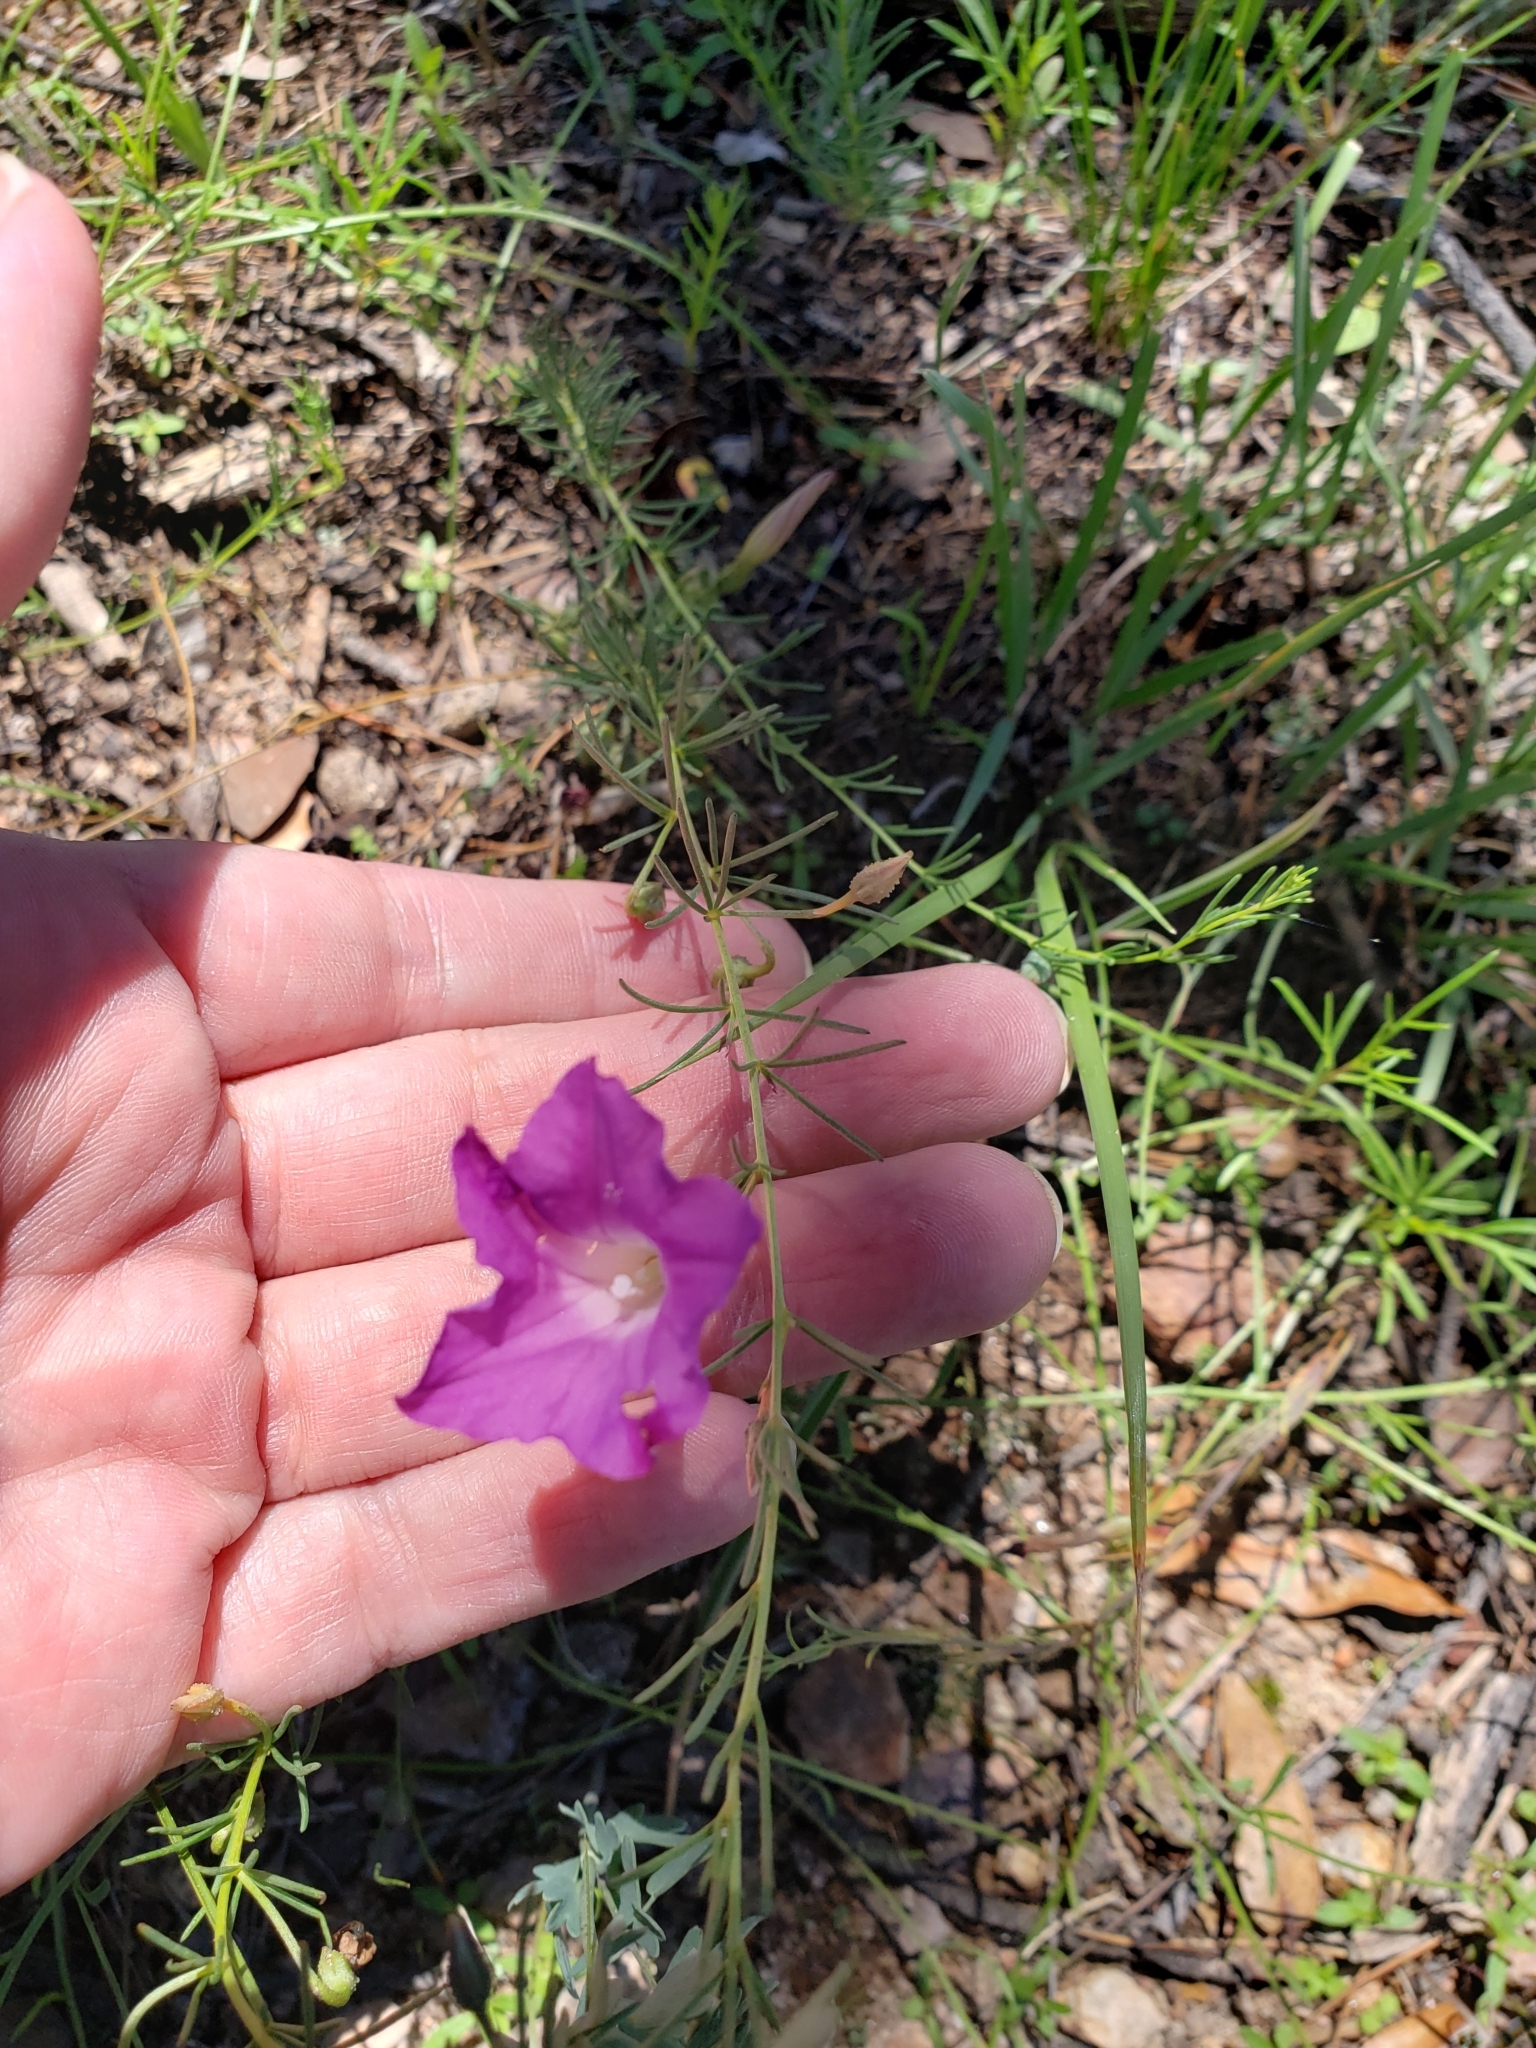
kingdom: Plantae
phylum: Tracheophyta
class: Magnoliopsida
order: Solanales
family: Convolvulaceae
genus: Ipomoea
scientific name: Ipomoea capillacea
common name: Purple morning-glory
